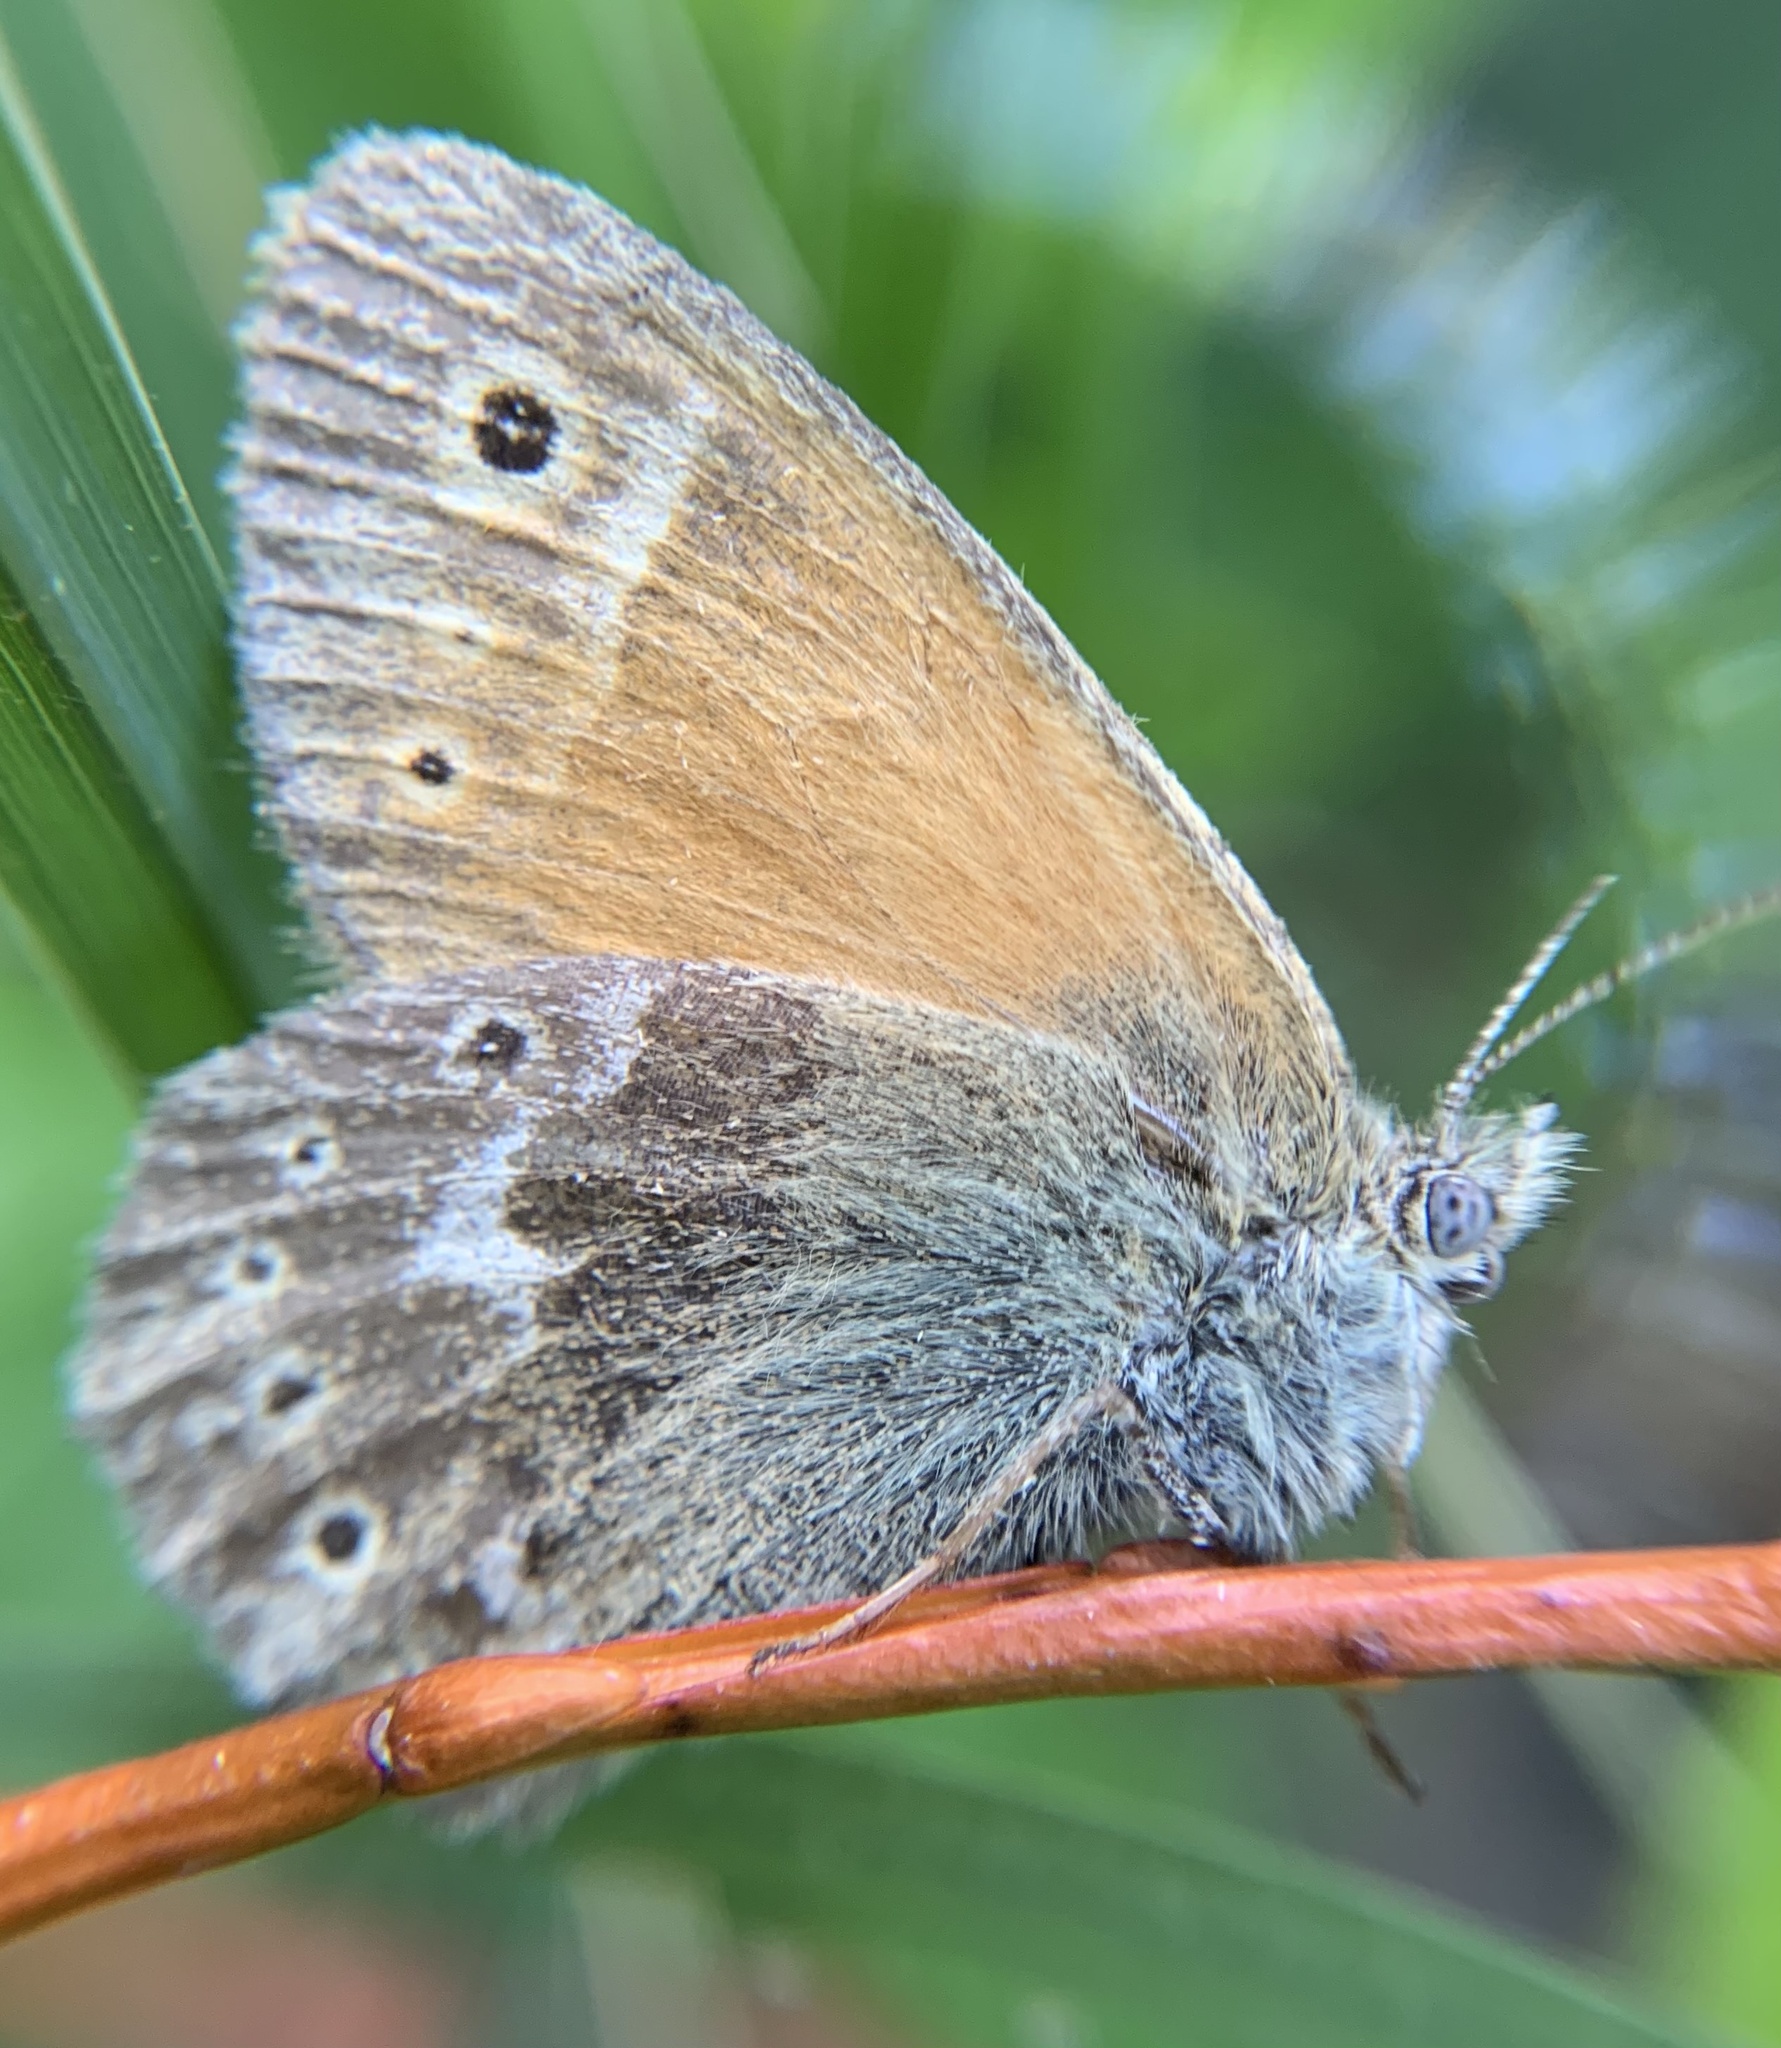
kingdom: Animalia
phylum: Arthropoda
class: Insecta
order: Lepidoptera
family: Nymphalidae
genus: Coenonympha
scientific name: Coenonympha tullia
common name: Large heath
